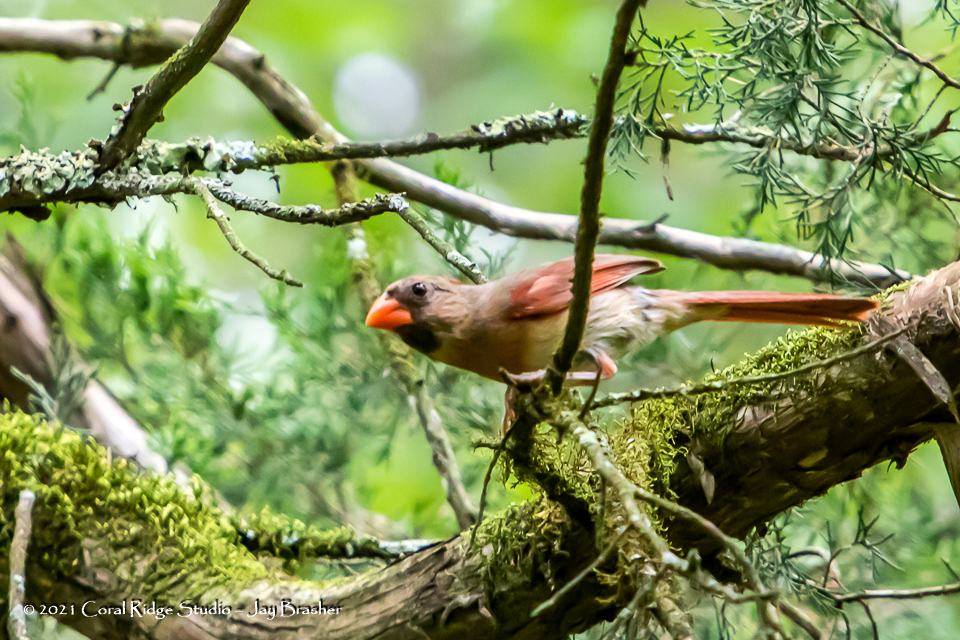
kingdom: Animalia
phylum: Chordata
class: Aves
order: Passeriformes
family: Cardinalidae
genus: Cardinalis
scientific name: Cardinalis cardinalis
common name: Northern cardinal
